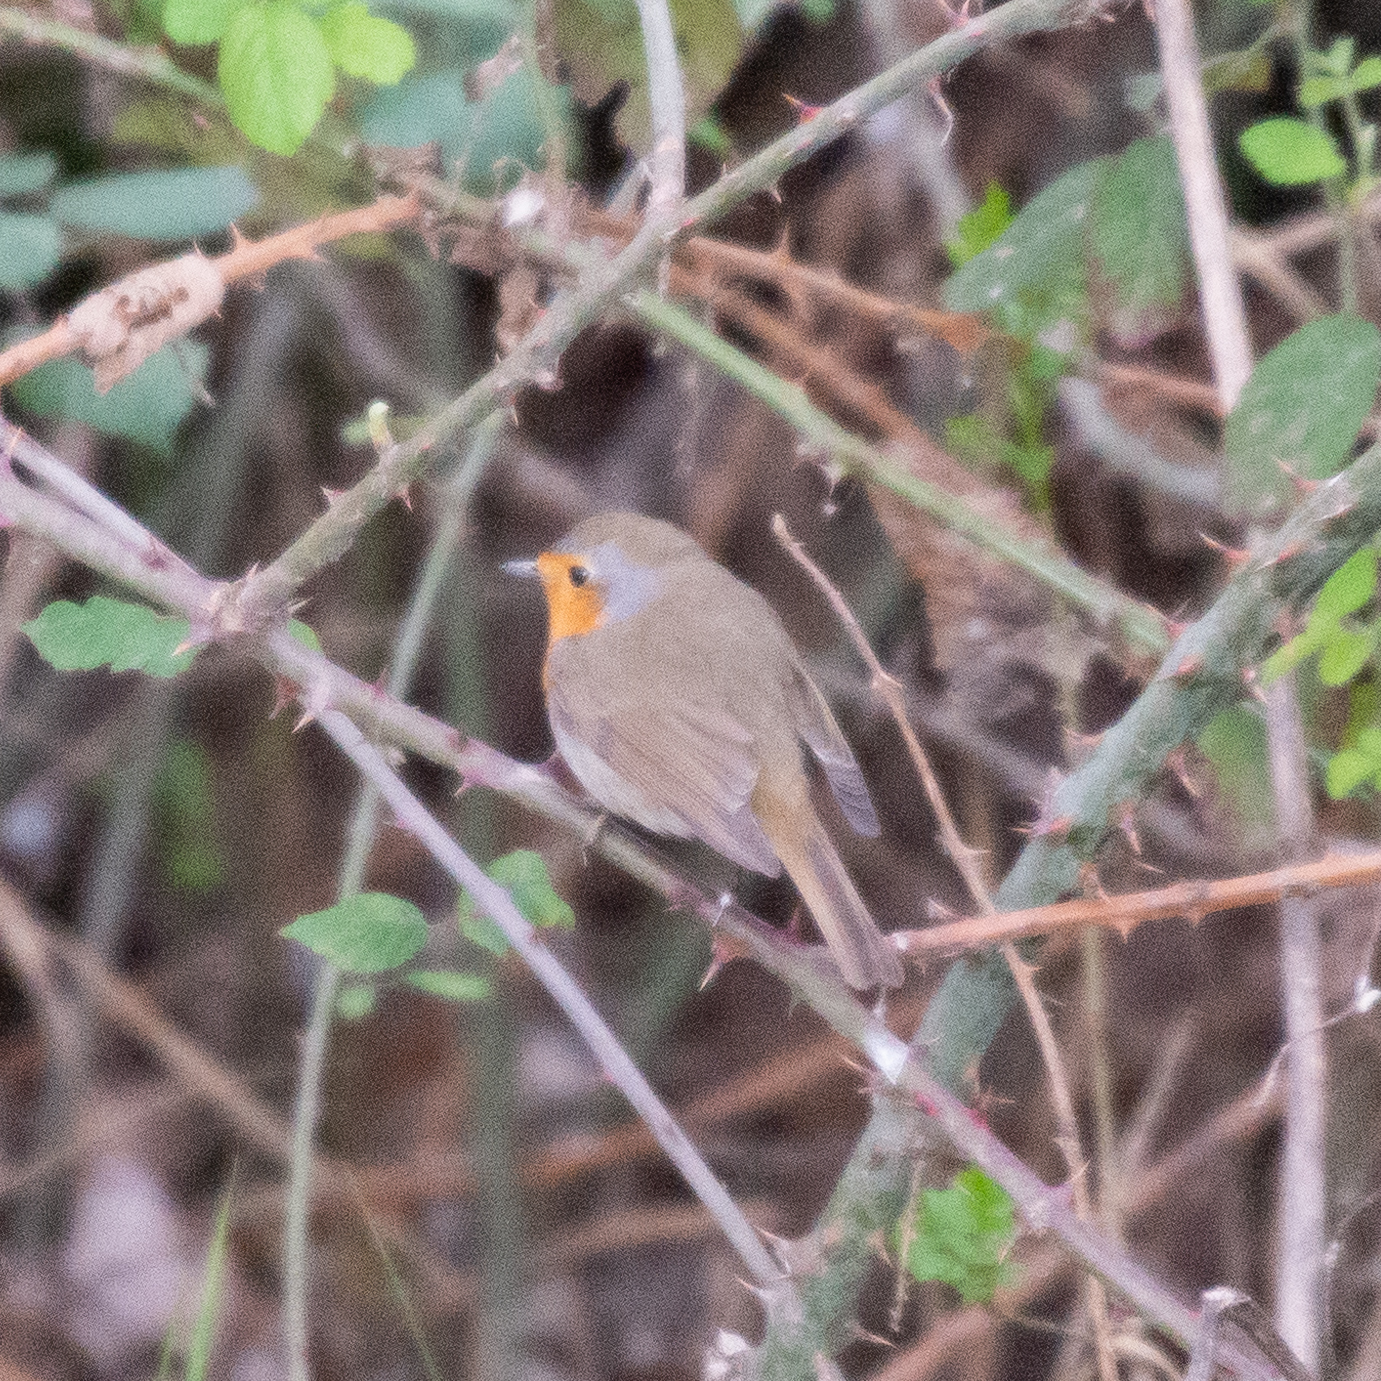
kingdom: Animalia
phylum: Chordata
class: Aves
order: Passeriformes
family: Muscicapidae
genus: Erithacus
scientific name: Erithacus rubecula
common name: European robin
